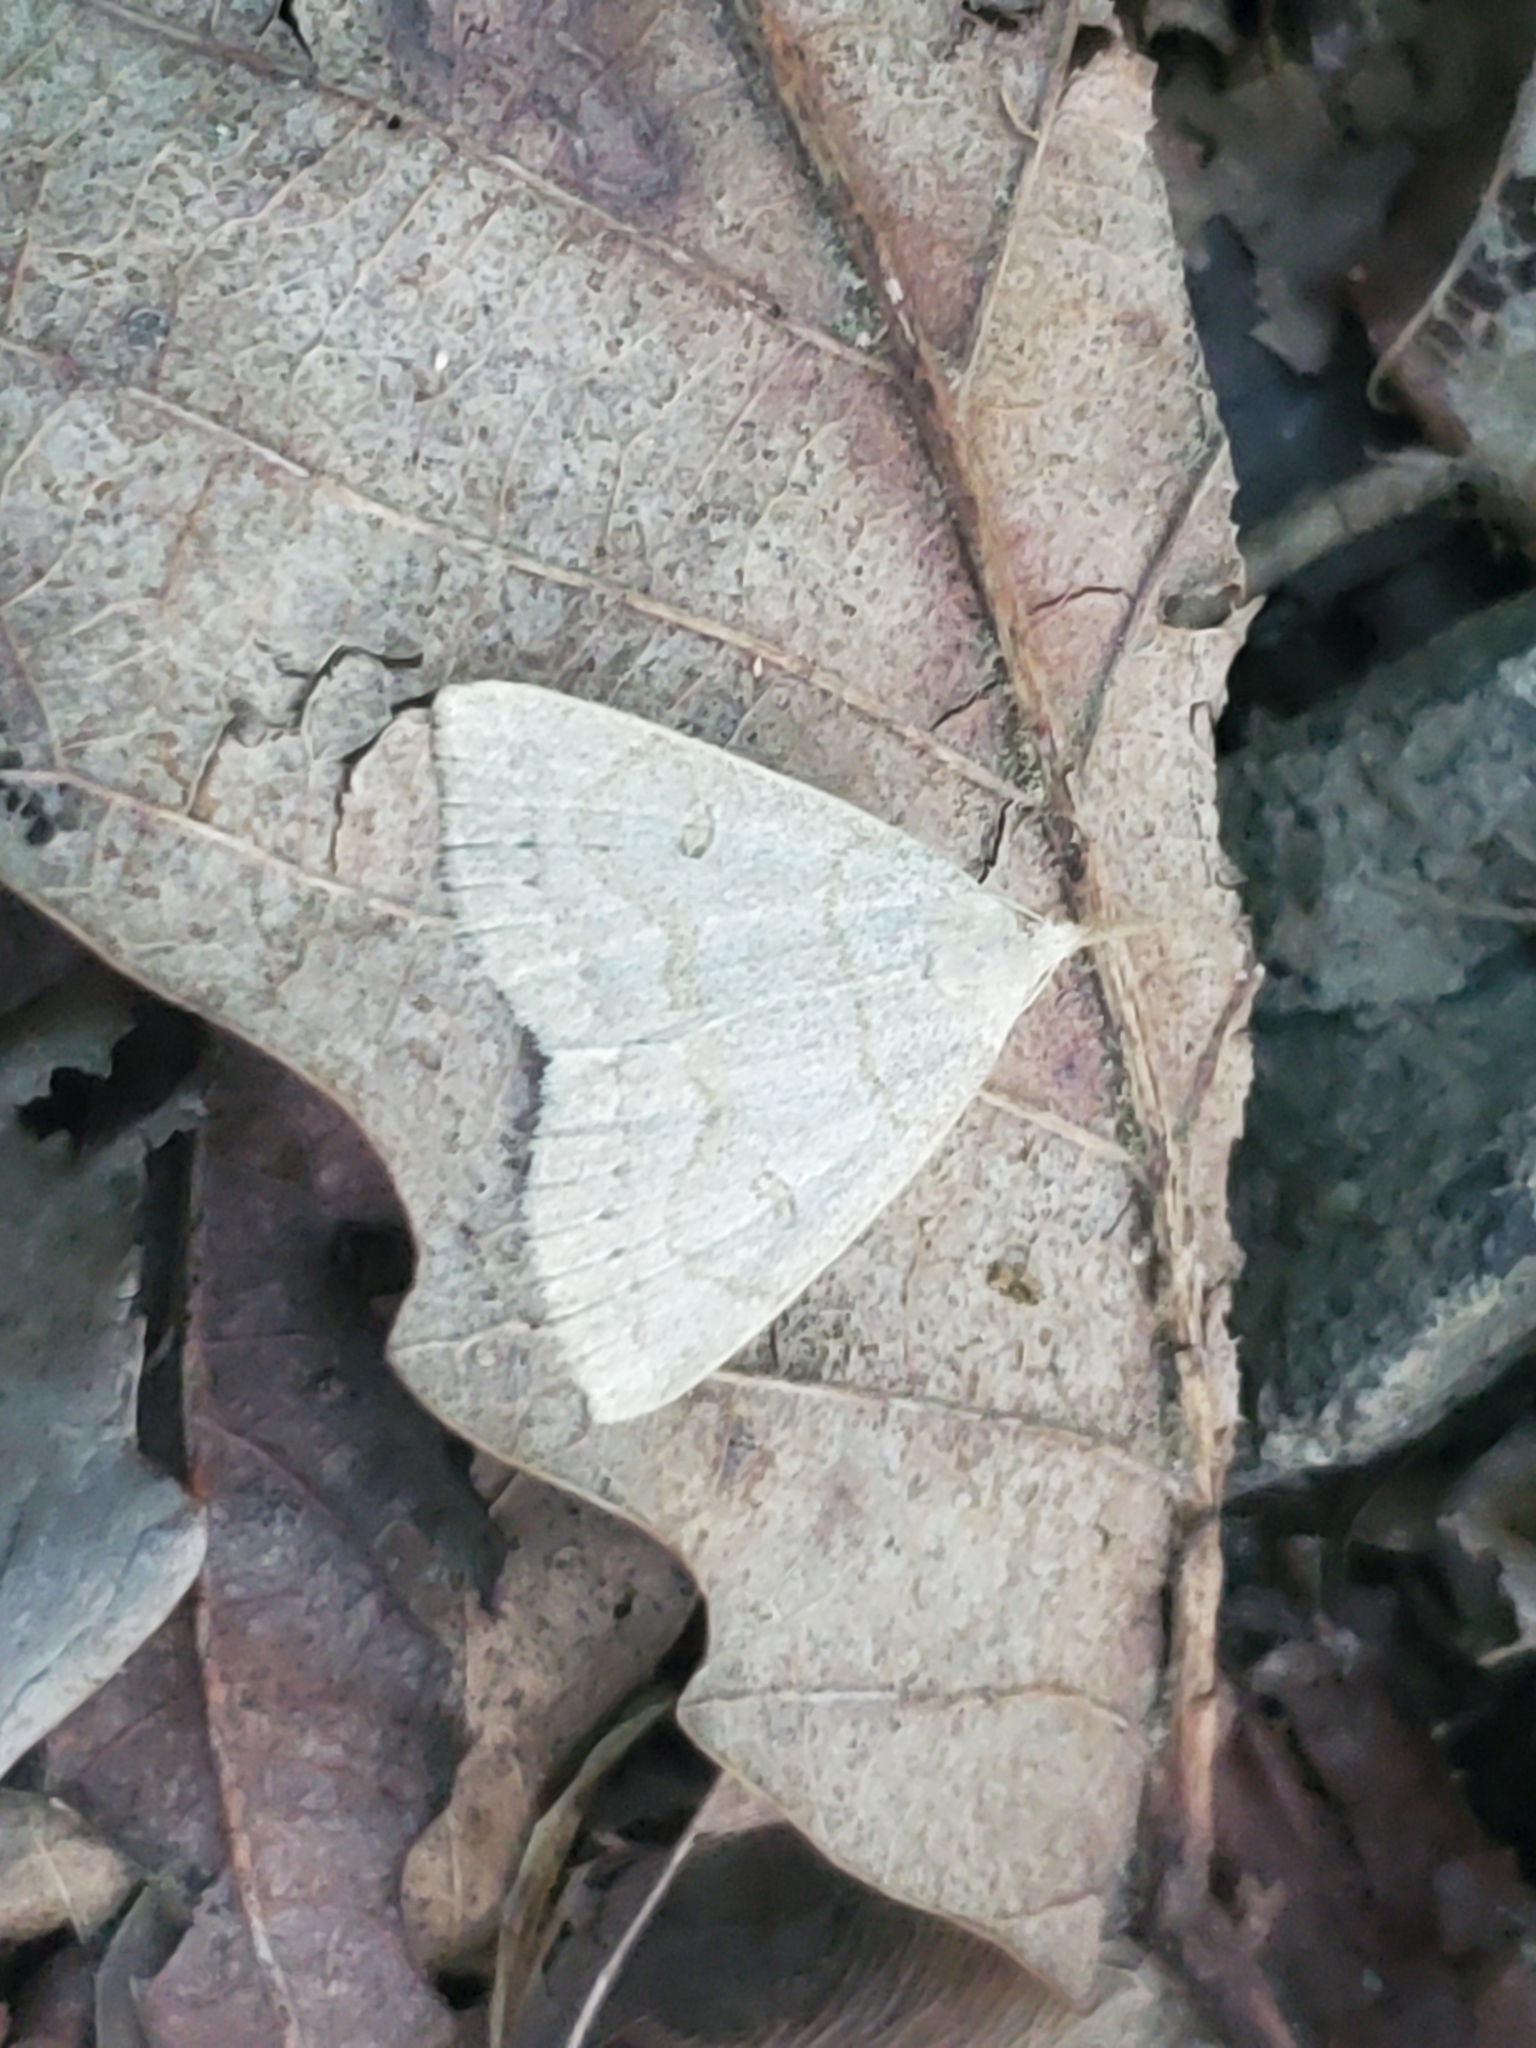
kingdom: Animalia
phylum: Arthropoda
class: Insecta
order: Lepidoptera
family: Erebidae
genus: Macrochilo
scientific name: Macrochilo morbidalis
